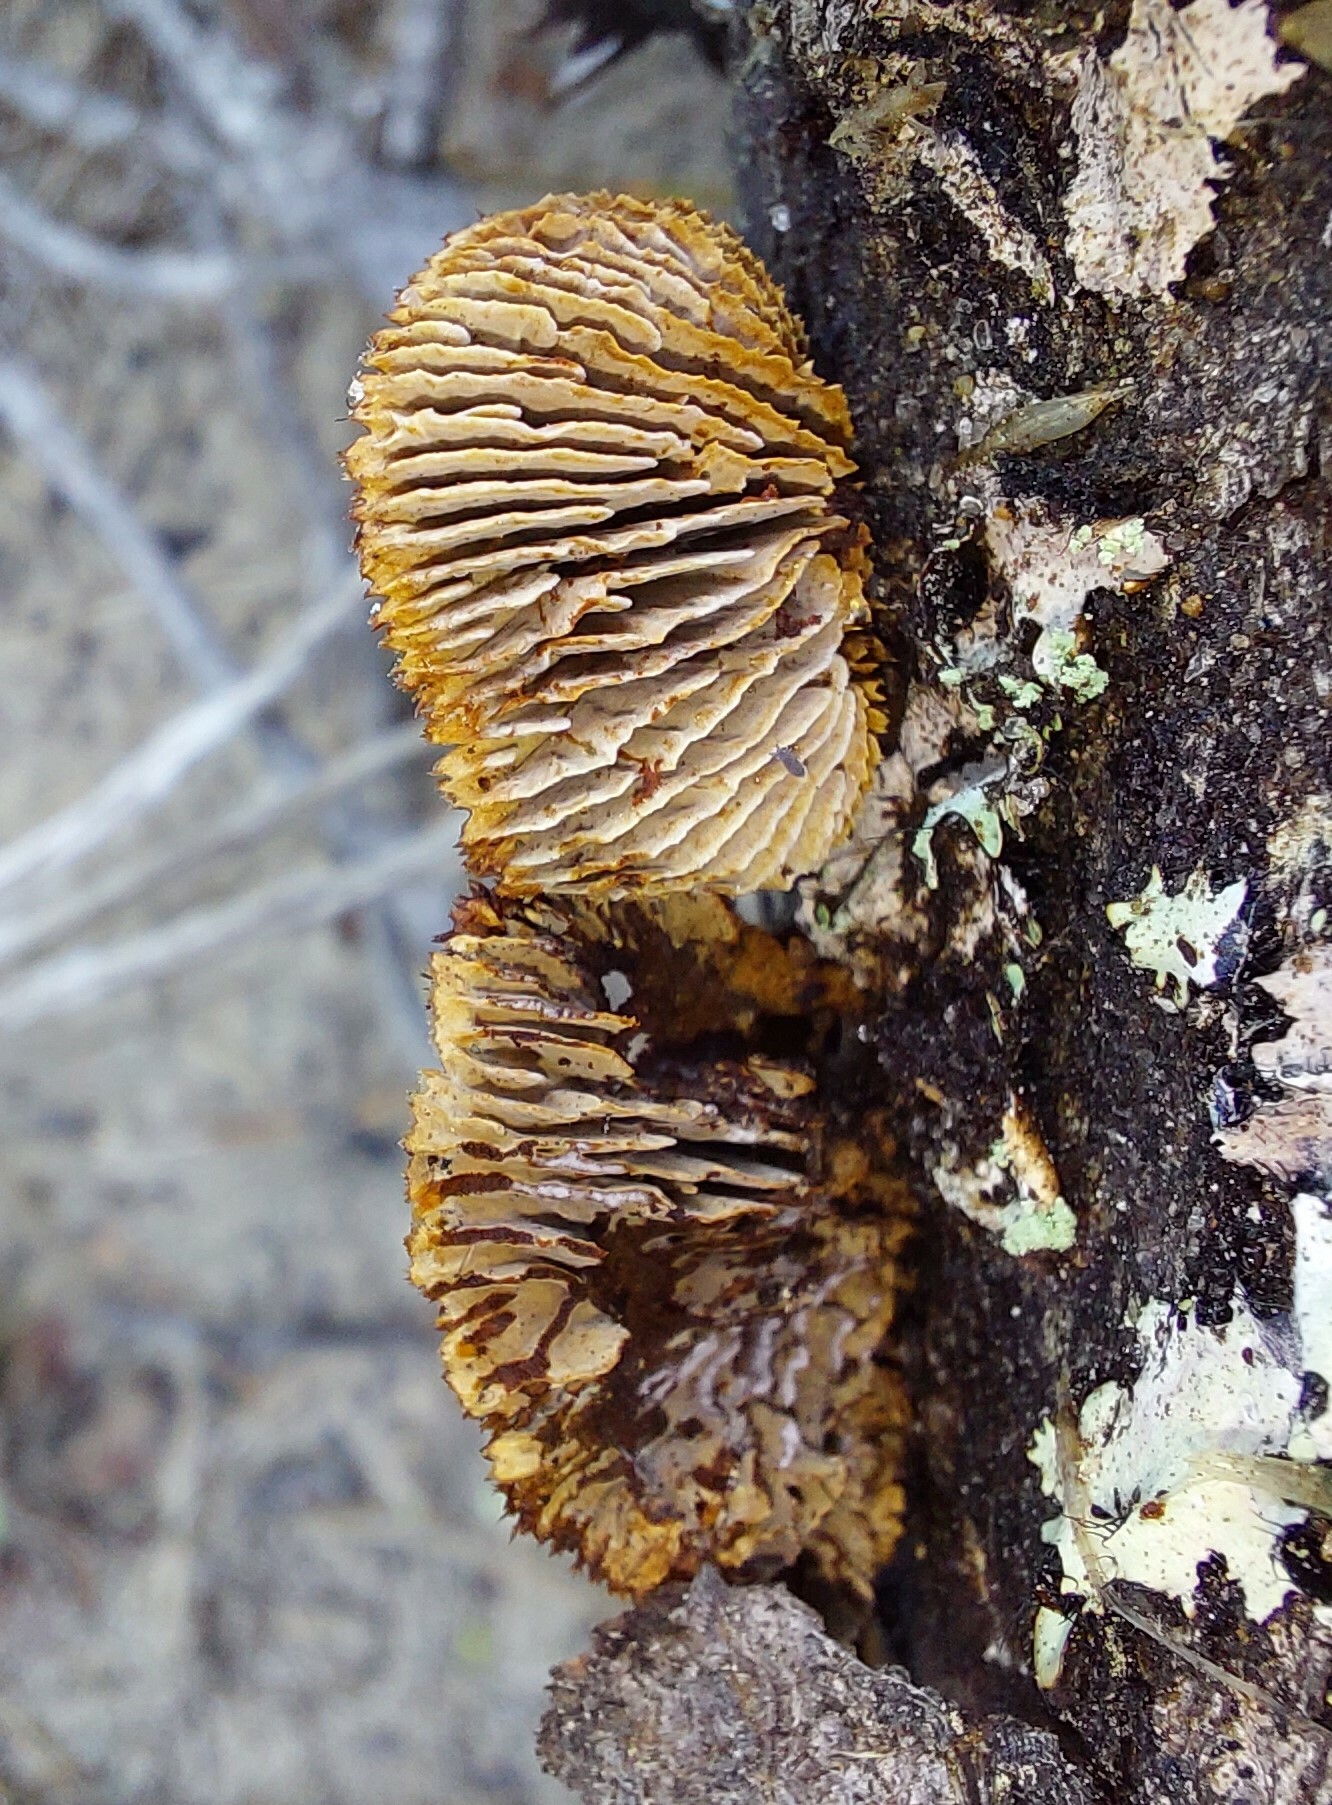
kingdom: Fungi
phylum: Basidiomycota
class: Agaricomycetes
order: Gloeophyllales
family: Gloeophyllaceae
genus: Gloeophyllum
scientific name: Gloeophyllum sepiarium
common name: Conifer mazegill
